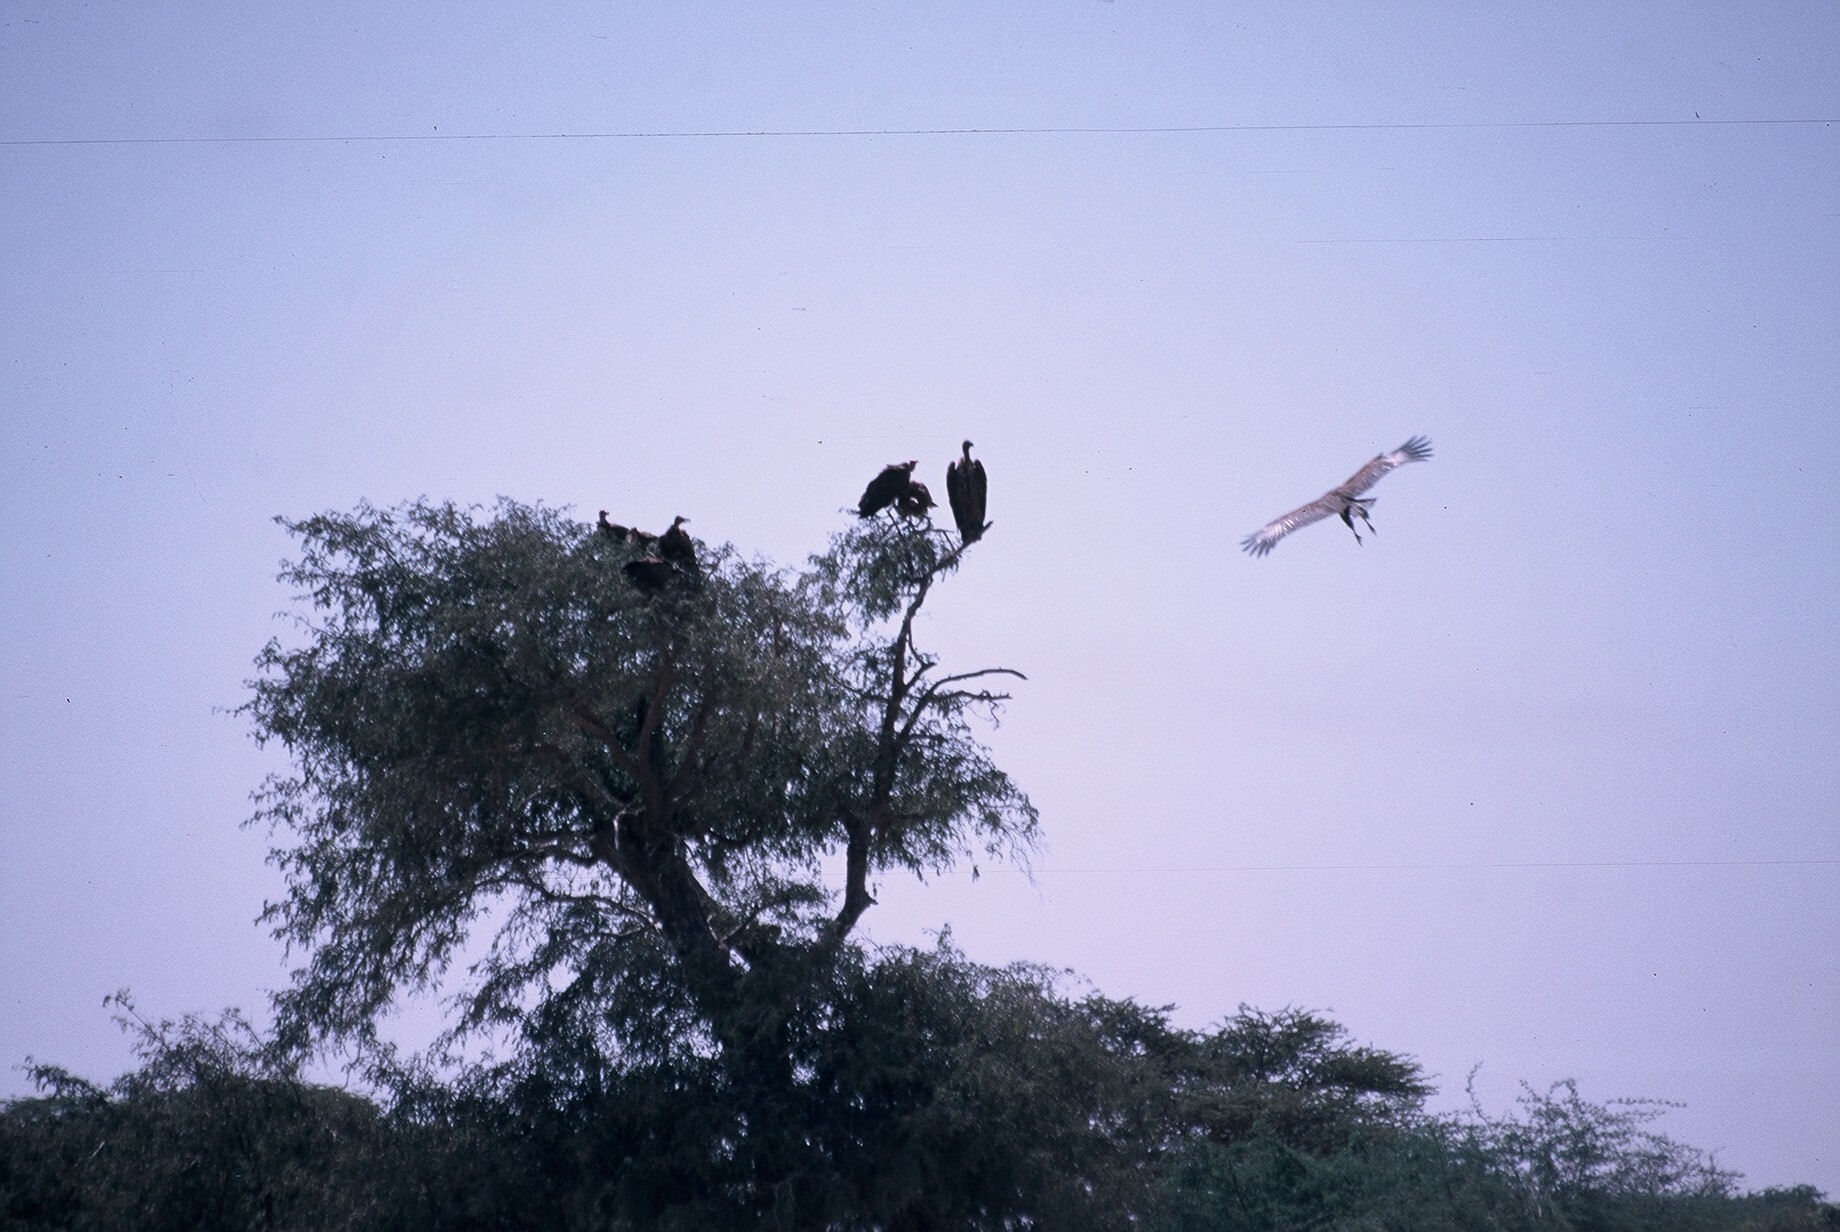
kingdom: Animalia
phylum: Chordata
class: Aves
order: Accipitriformes
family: Accipitridae
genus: Necrosyrtes
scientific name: Necrosyrtes monachus
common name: Hooded vulture
